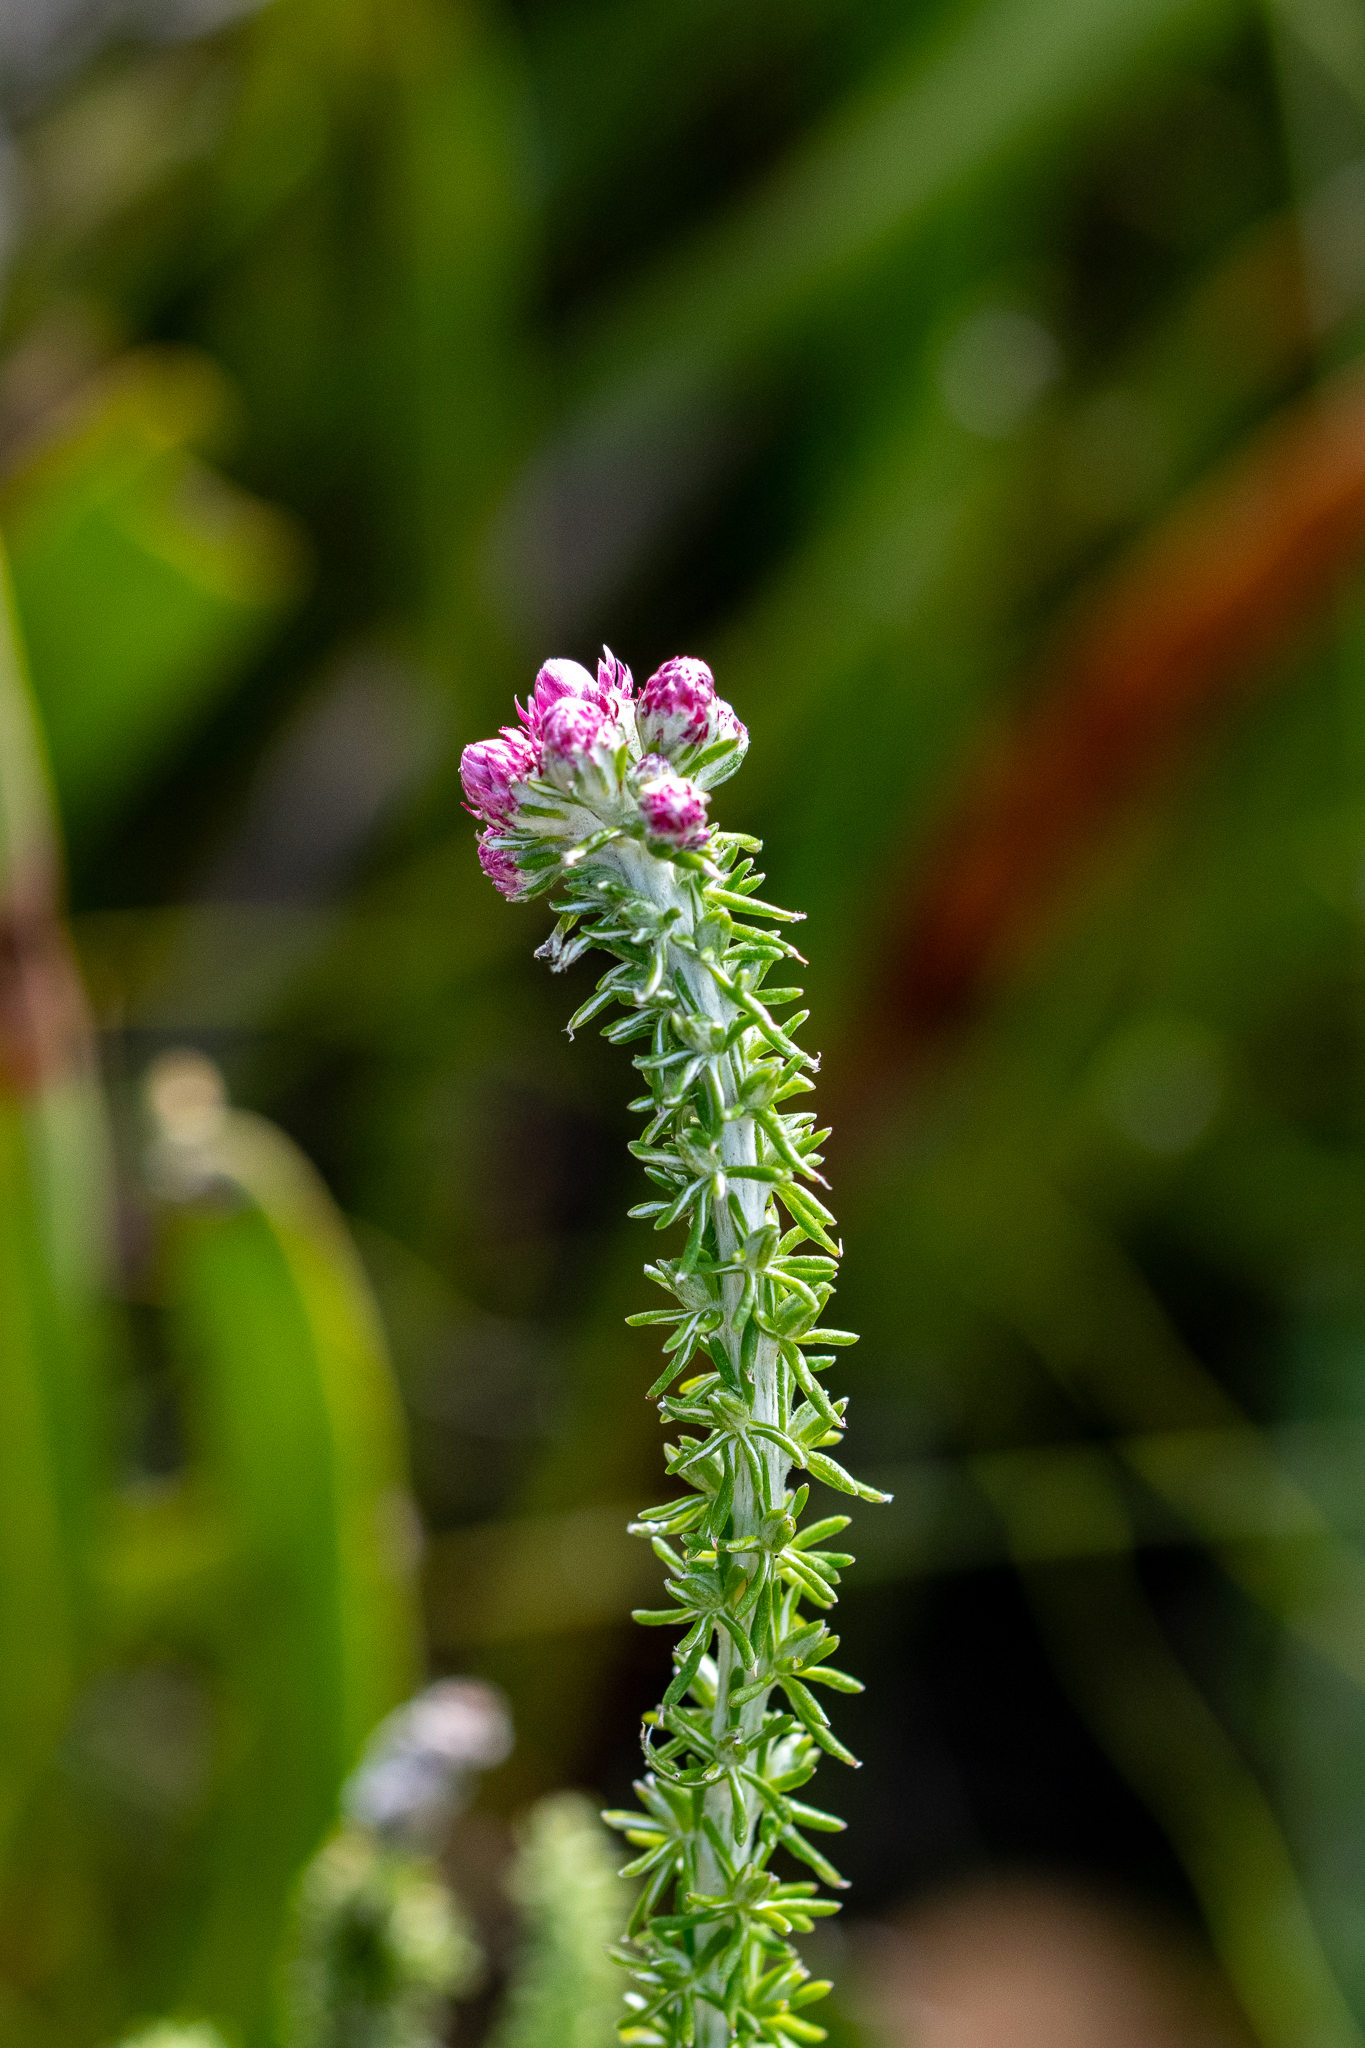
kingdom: Plantae
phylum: Tracheophyta
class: Magnoliopsida
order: Asterales
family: Asteraceae
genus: Lachnospermum
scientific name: Lachnospermum umbellatum
